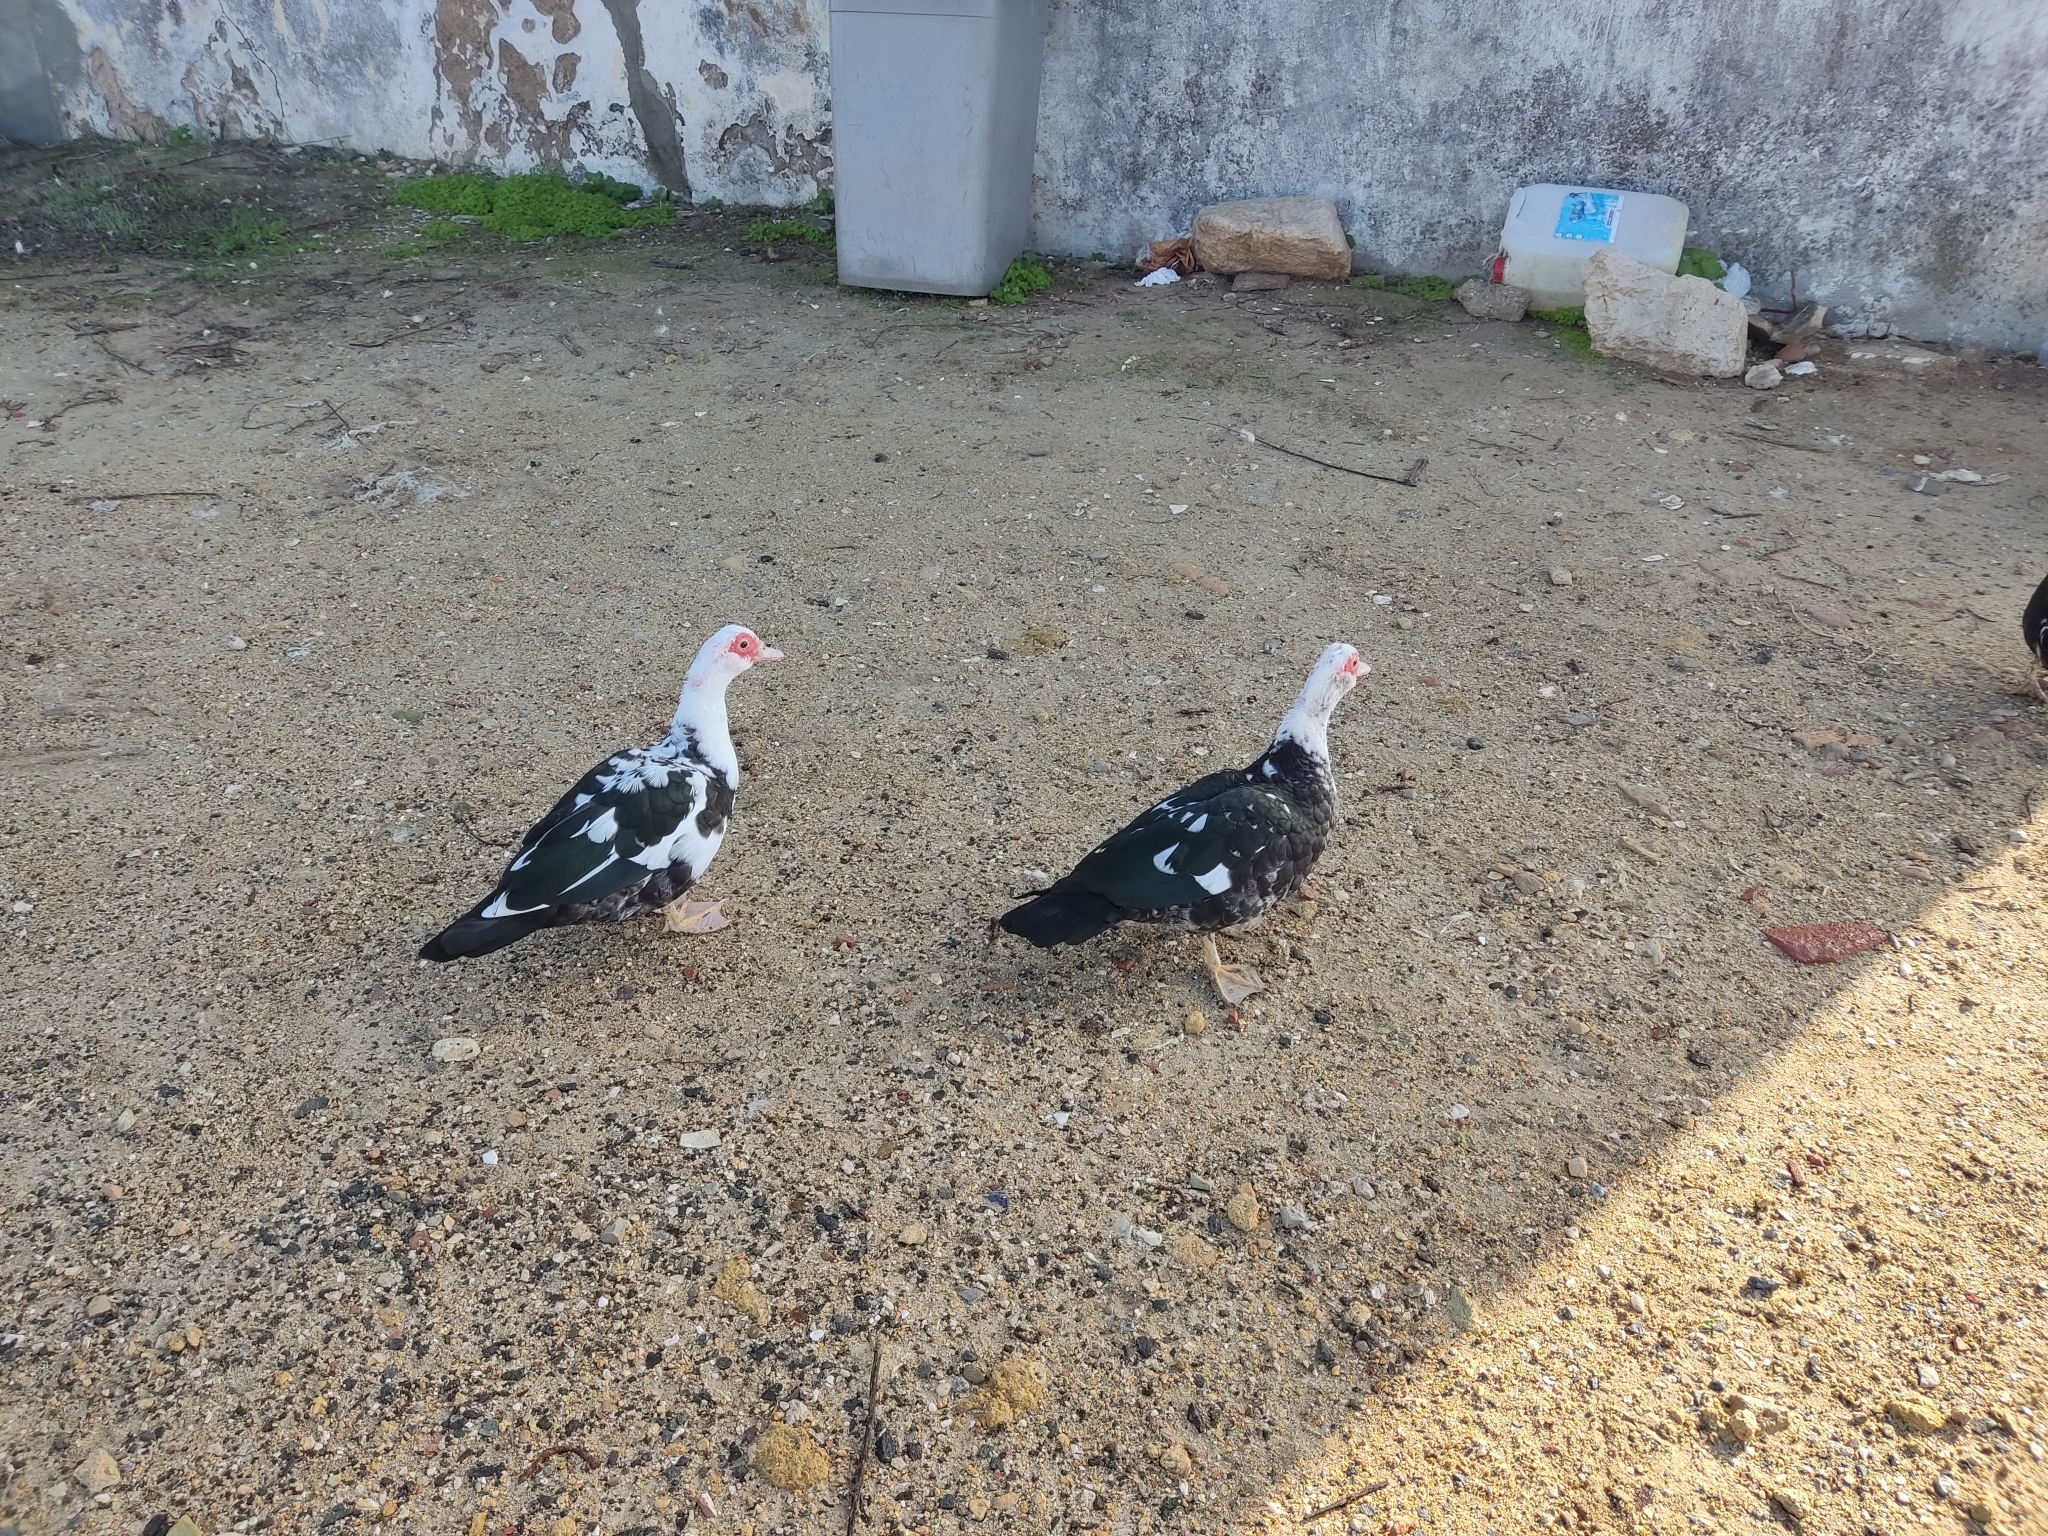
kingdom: Animalia
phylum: Chordata
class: Aves
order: Anseriformes
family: Anatidae
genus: Cairina
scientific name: Cairina moschata
